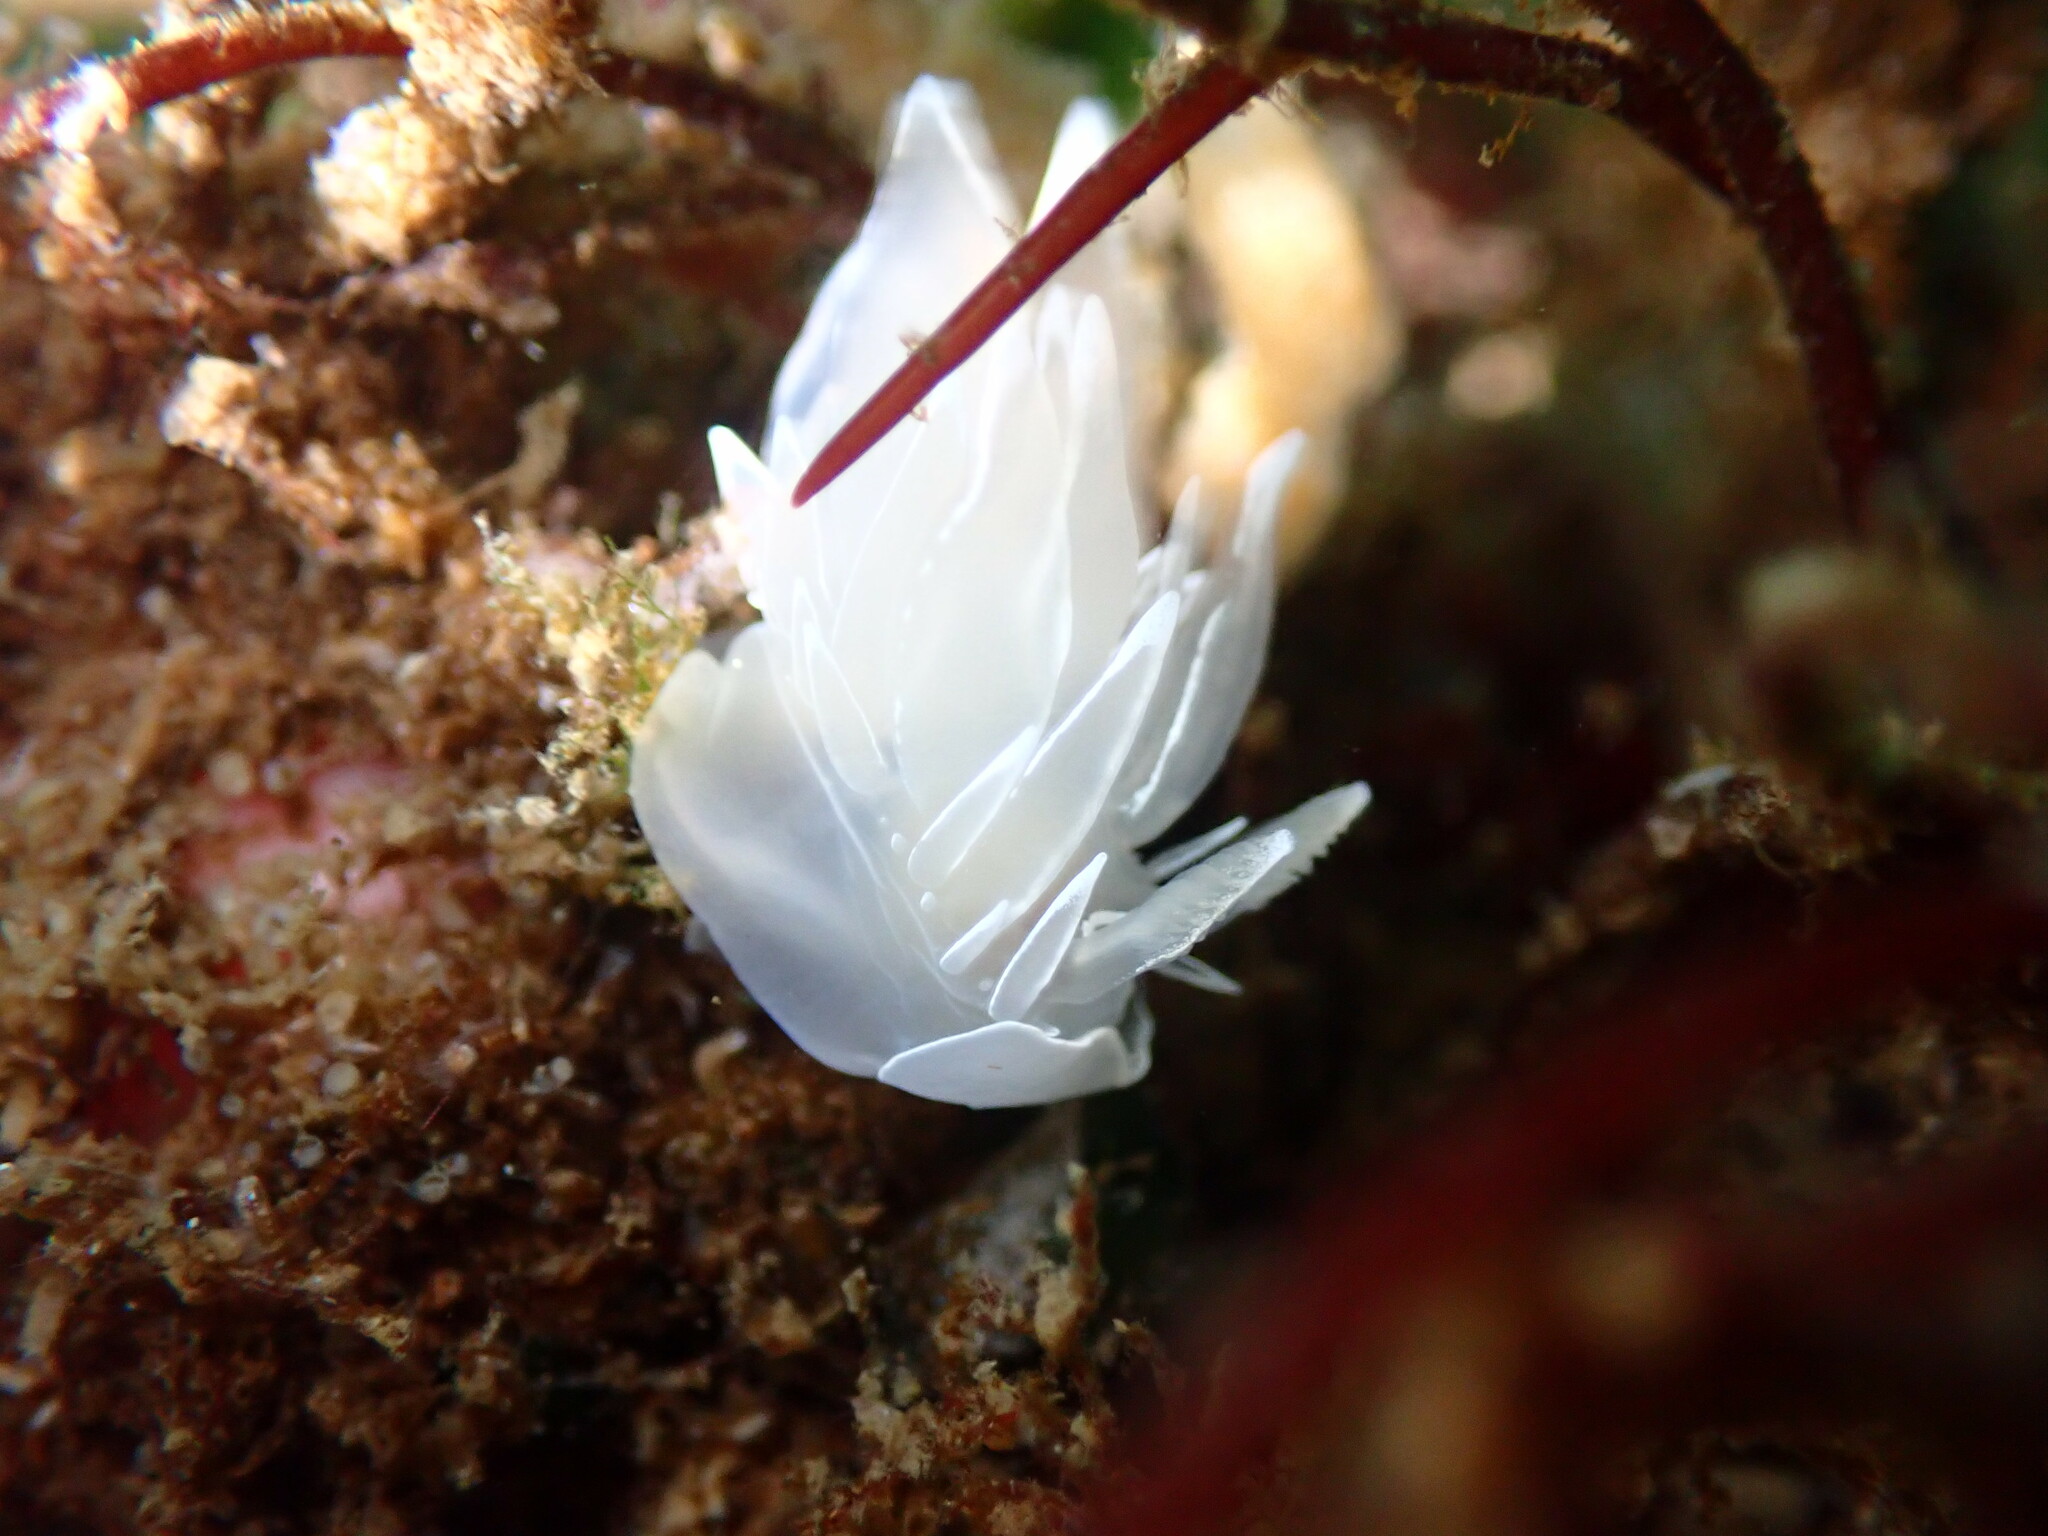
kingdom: Animalia
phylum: Mollusca
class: Gastropoda
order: Nudibranchia
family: Dironidae
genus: Dirona
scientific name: Dirona albolineata
